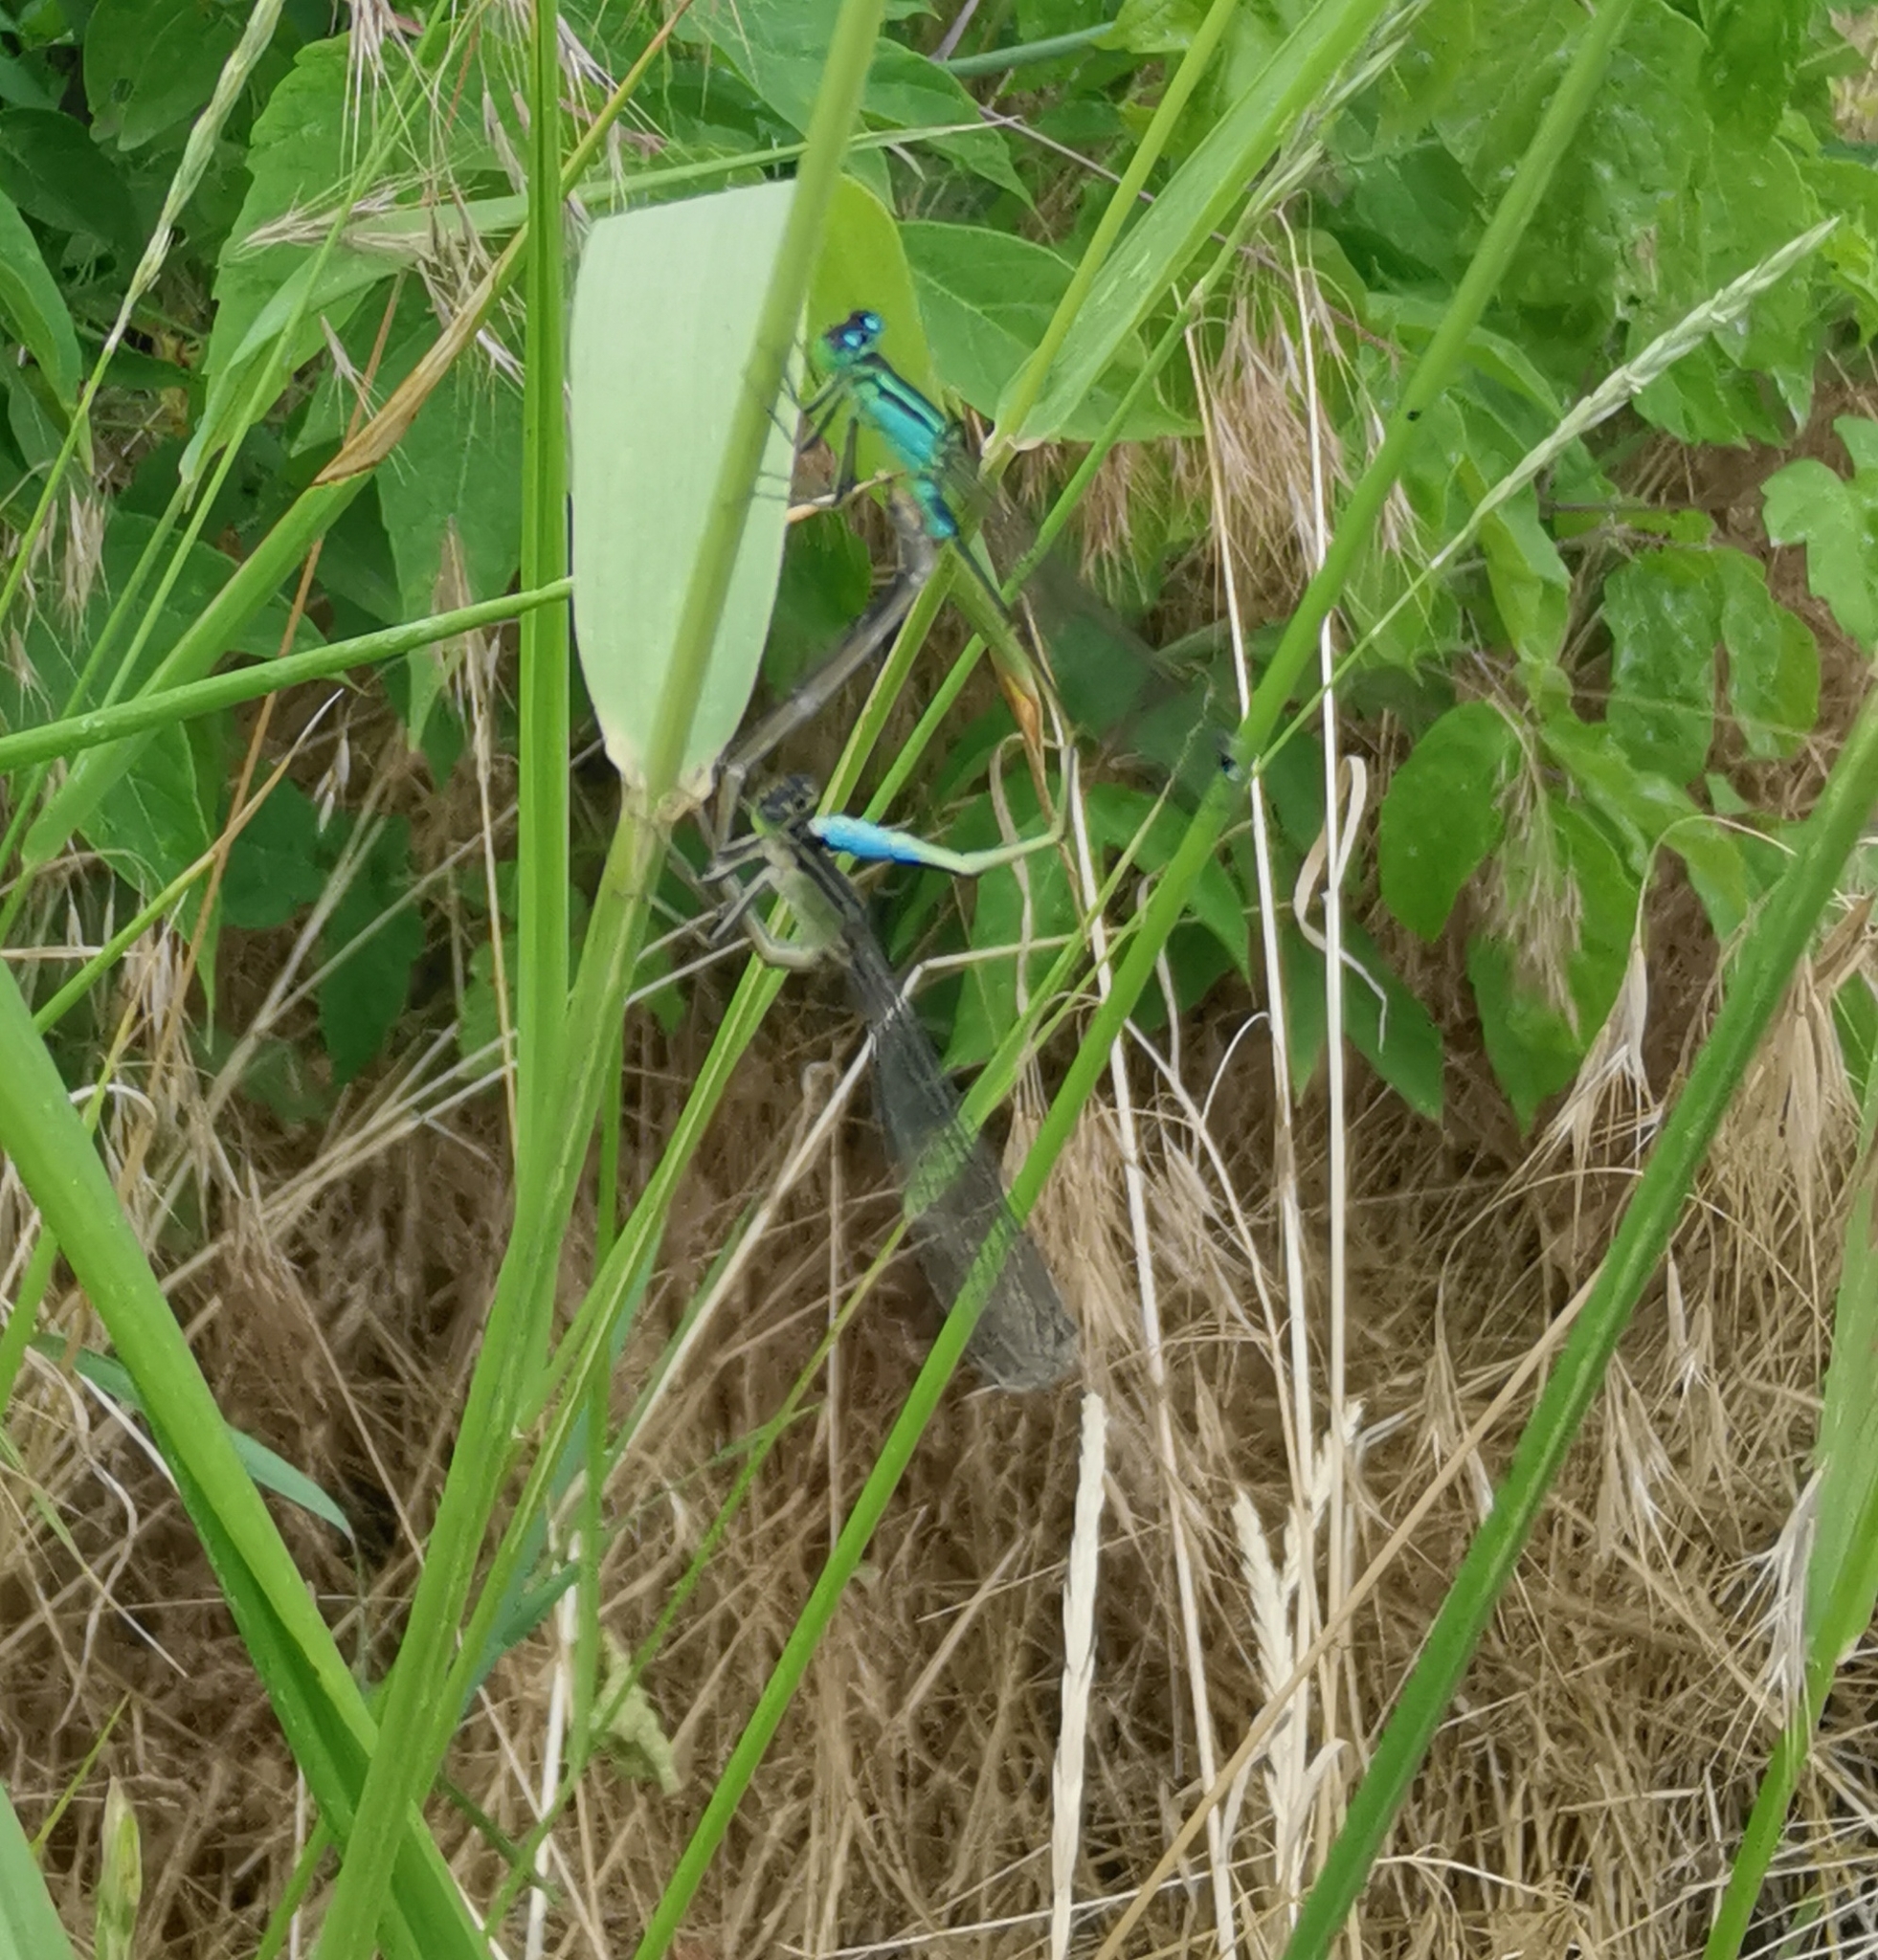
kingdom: Animalia
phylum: Arthropoda
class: Insecta
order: Odonata
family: Coenagrionidae
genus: Ischnura
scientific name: Ischnura elegans
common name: Blue-tailed damselfly
